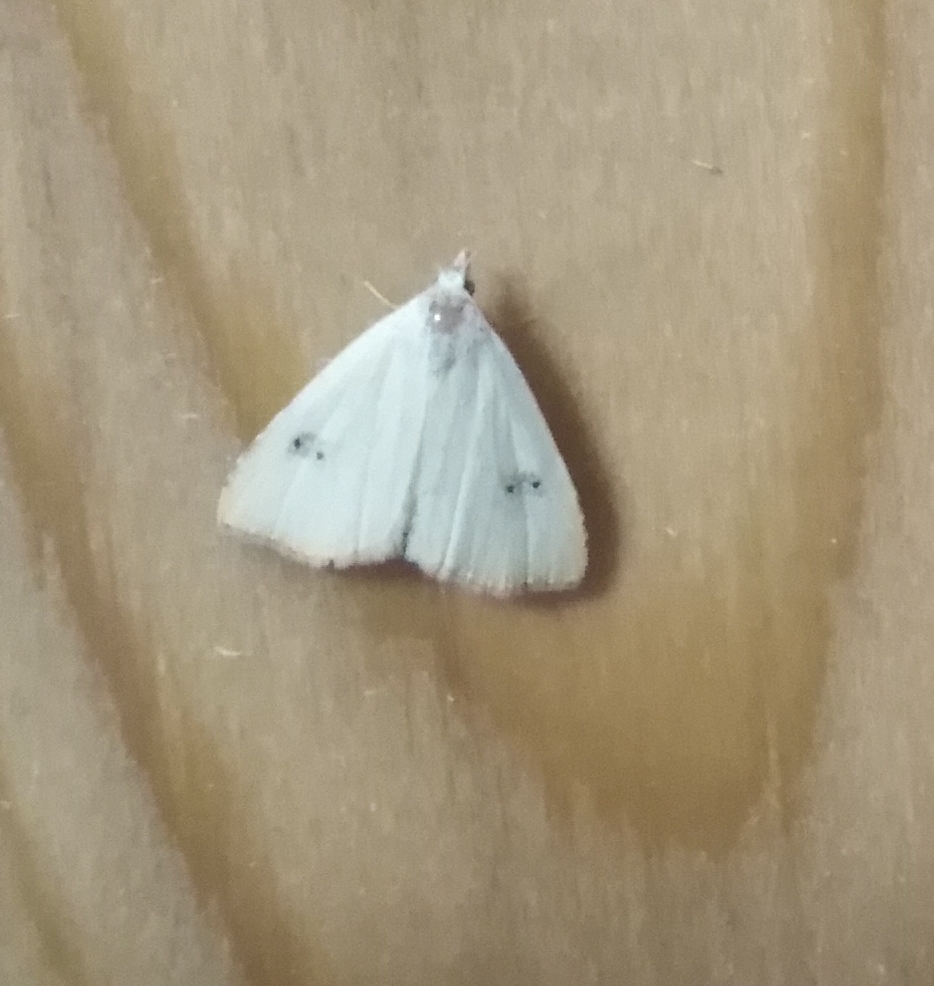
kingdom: Animalia
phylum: Arthropoda
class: Insecta
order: Lepidoptera
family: Erebidae
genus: Rivula
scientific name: Rivula sericealis
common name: Straw dot
